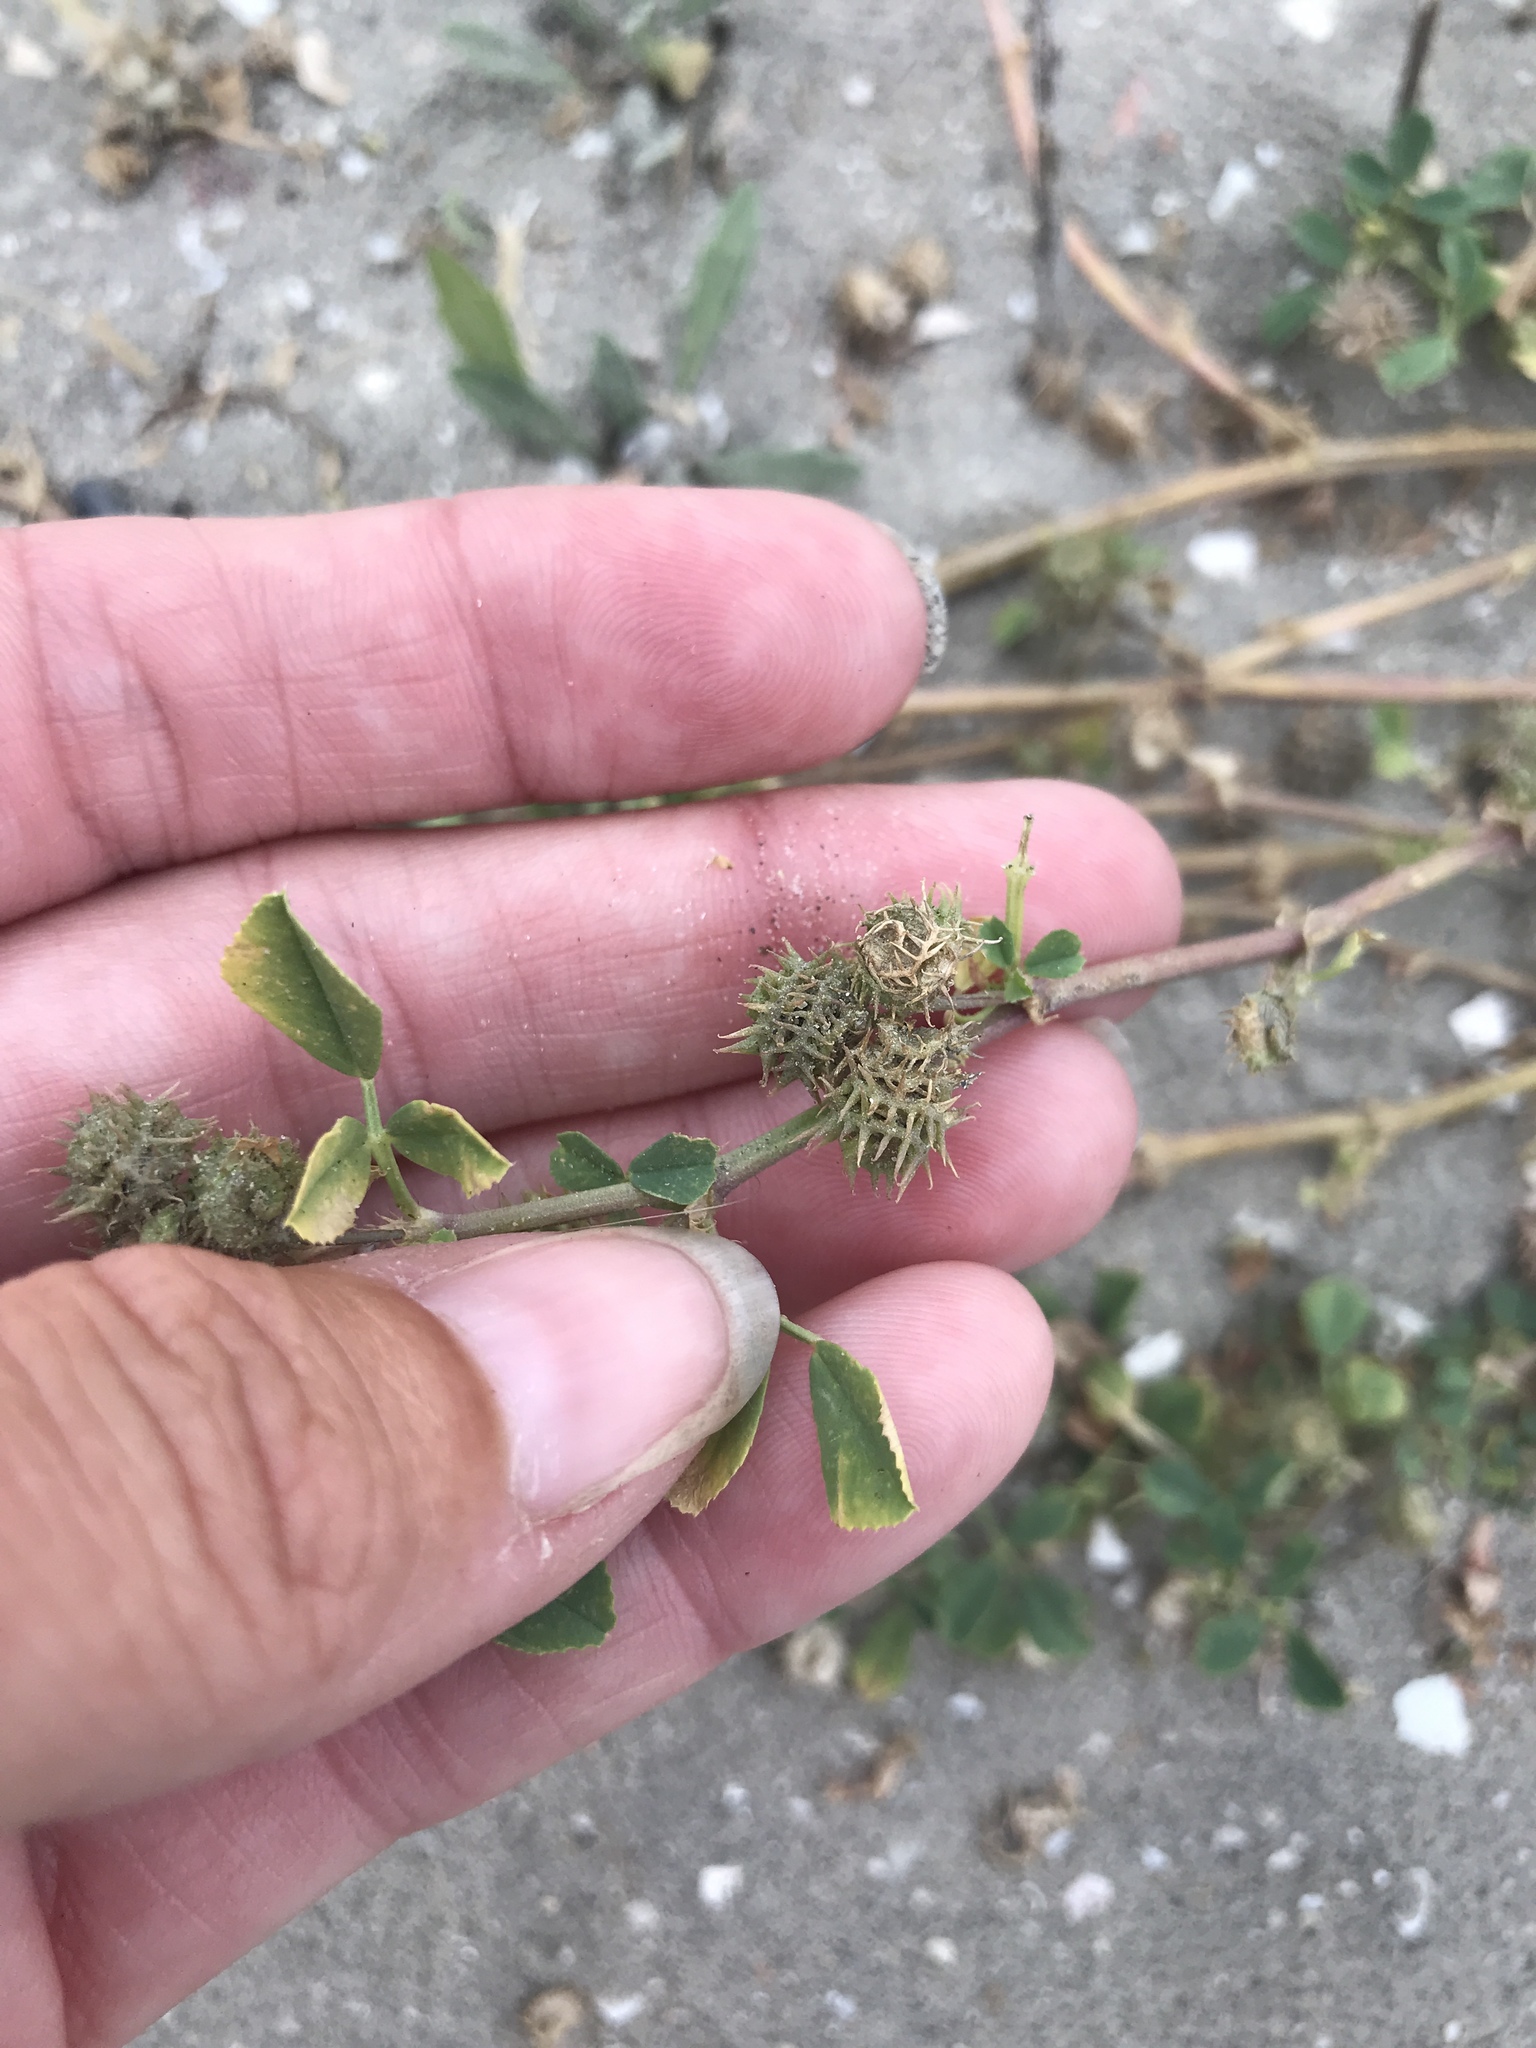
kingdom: Plantae
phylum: Tracheophyta
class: Magnoliopsida
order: Fabales
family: Fabaceae
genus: Medicago
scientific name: Medicago polymorpha
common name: Burclover
